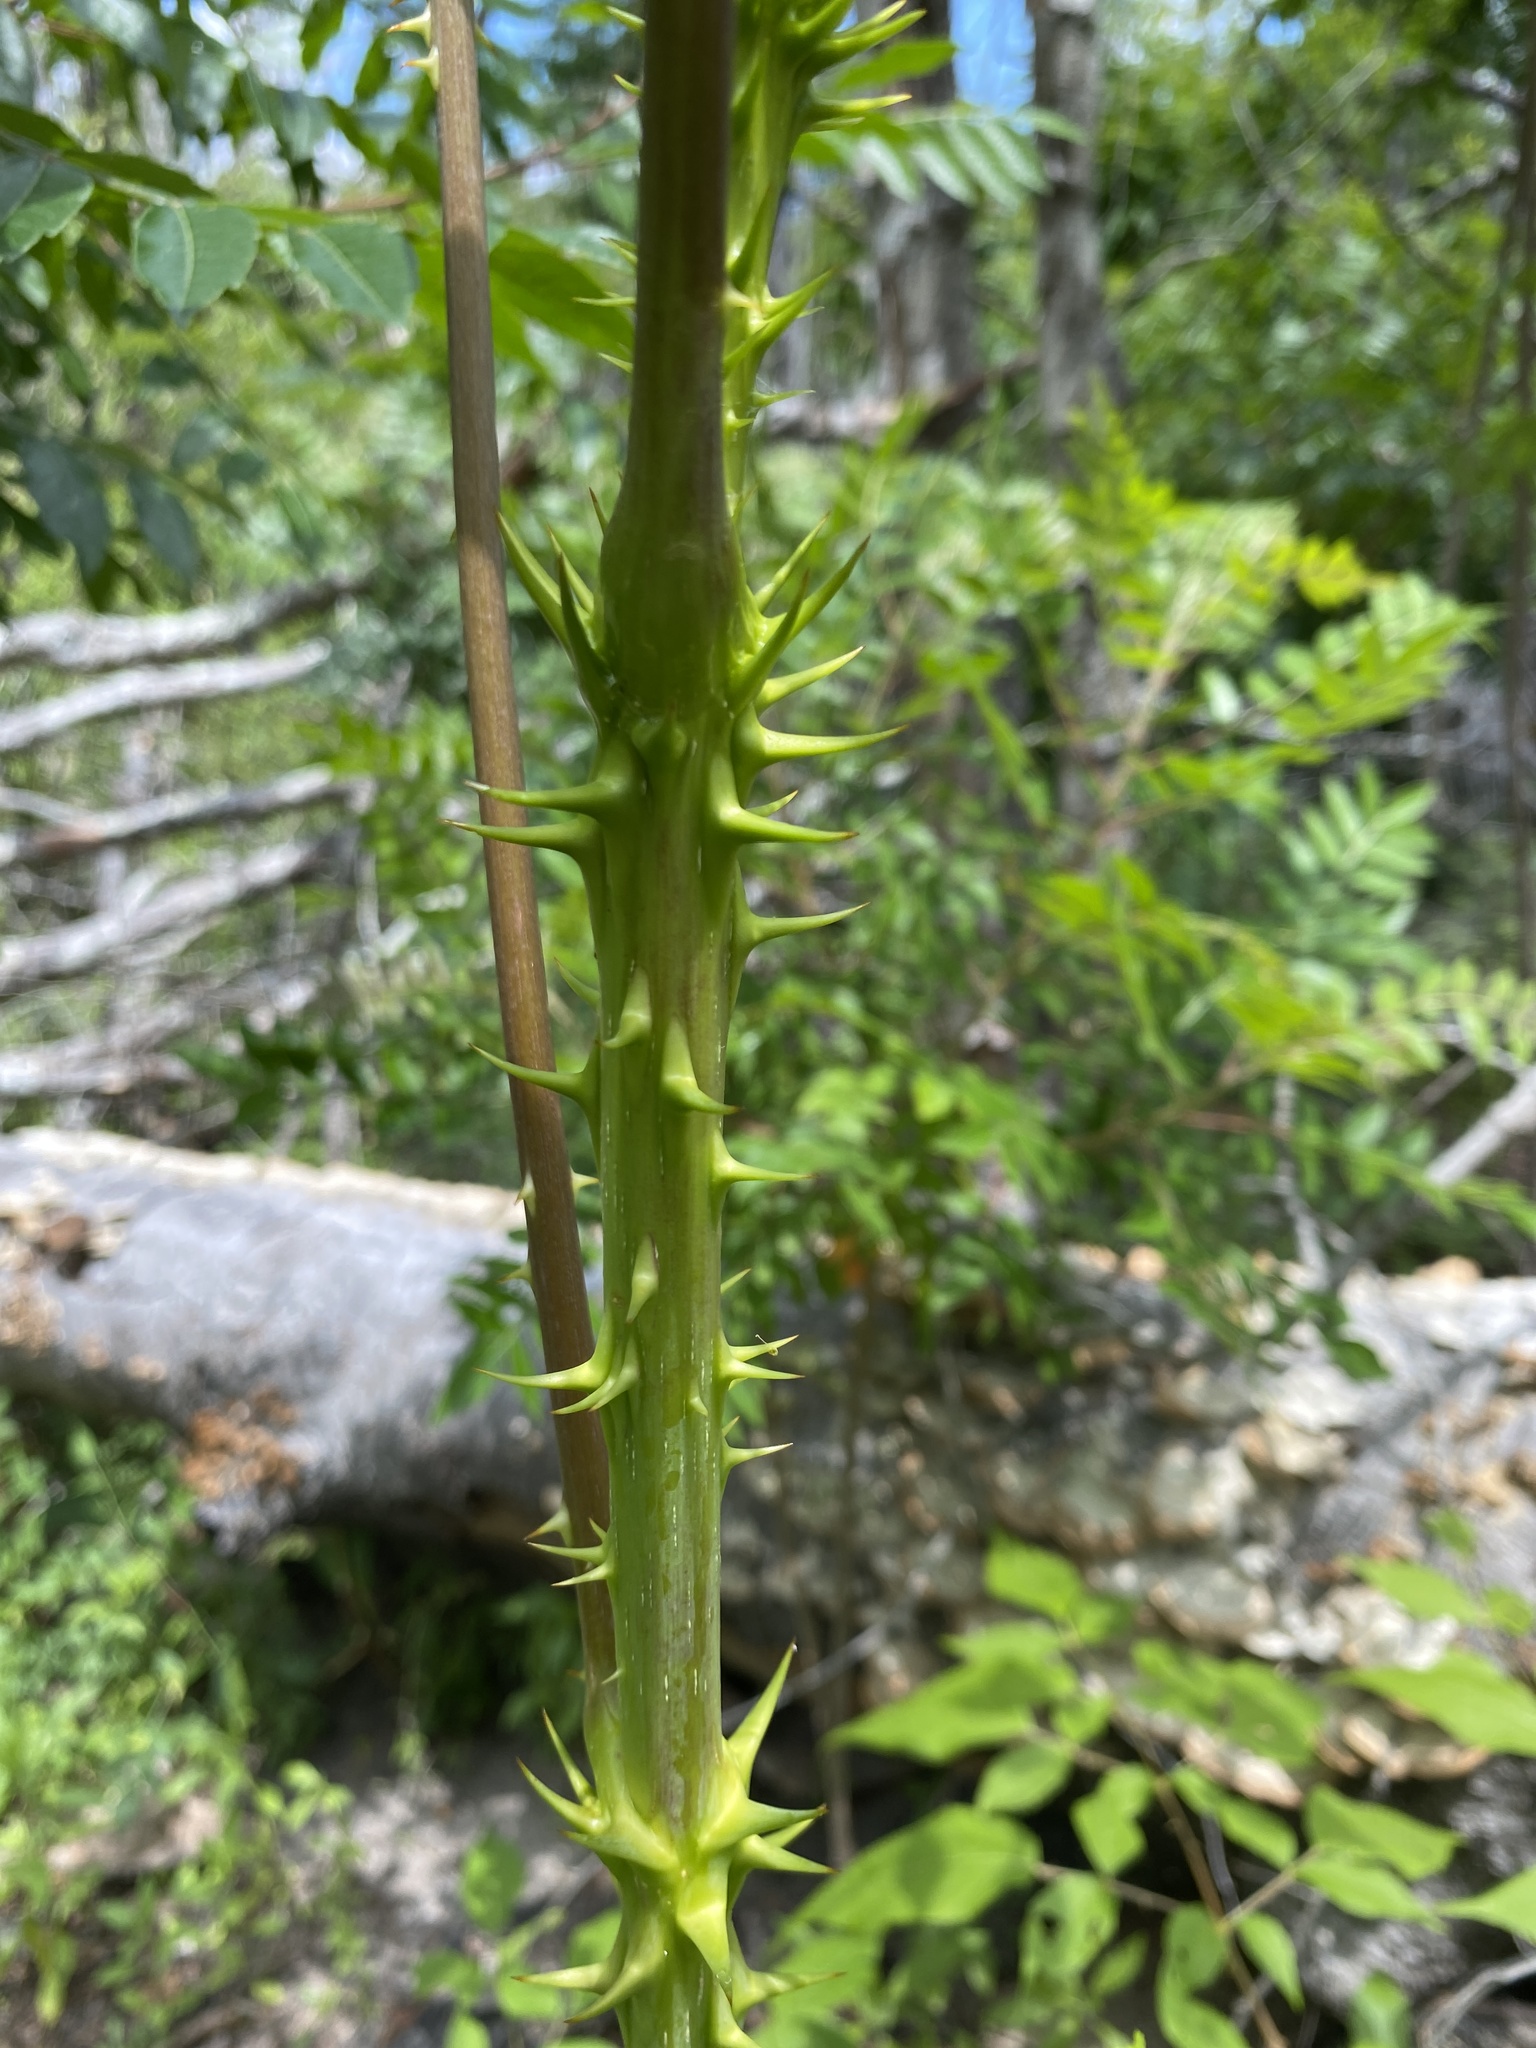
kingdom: Plantae
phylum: Tracheophyta
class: Magnoliopsida
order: Apiales
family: Araliaceae
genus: Aralia
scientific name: Aralia spinosa
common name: Hercules'-club
